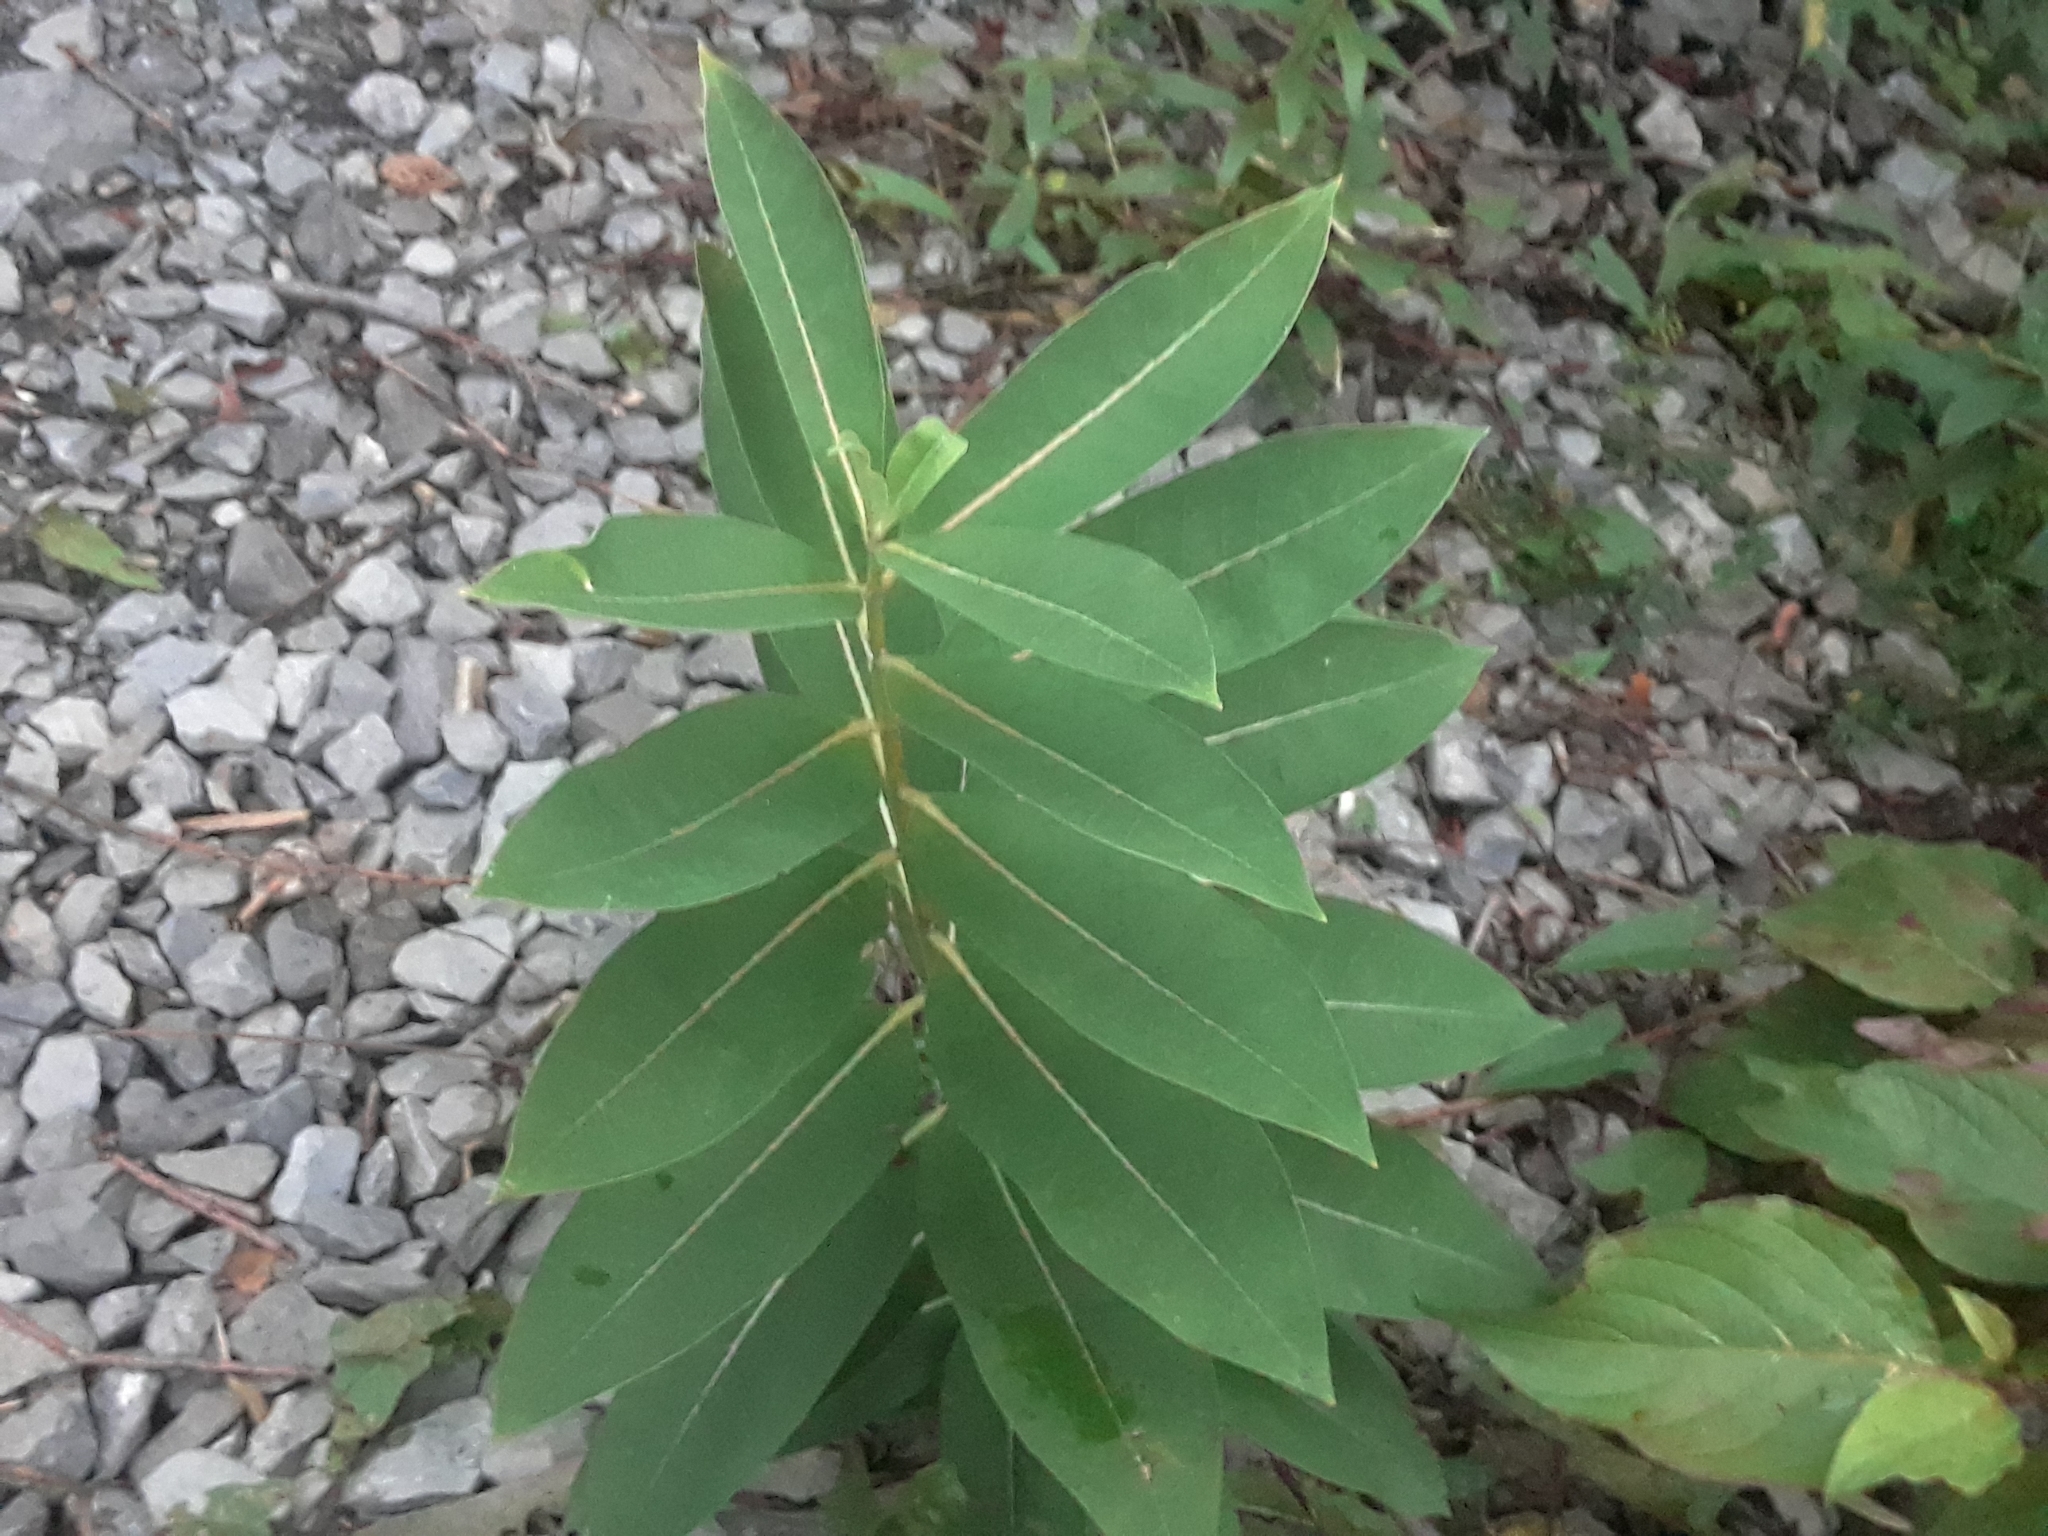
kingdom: Plantae
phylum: Tracheophyta
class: Magnoliopsida
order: Gentianales
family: Apocynaceae
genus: Asclepias
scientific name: Asclepias syriaca
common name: Common milkweed
